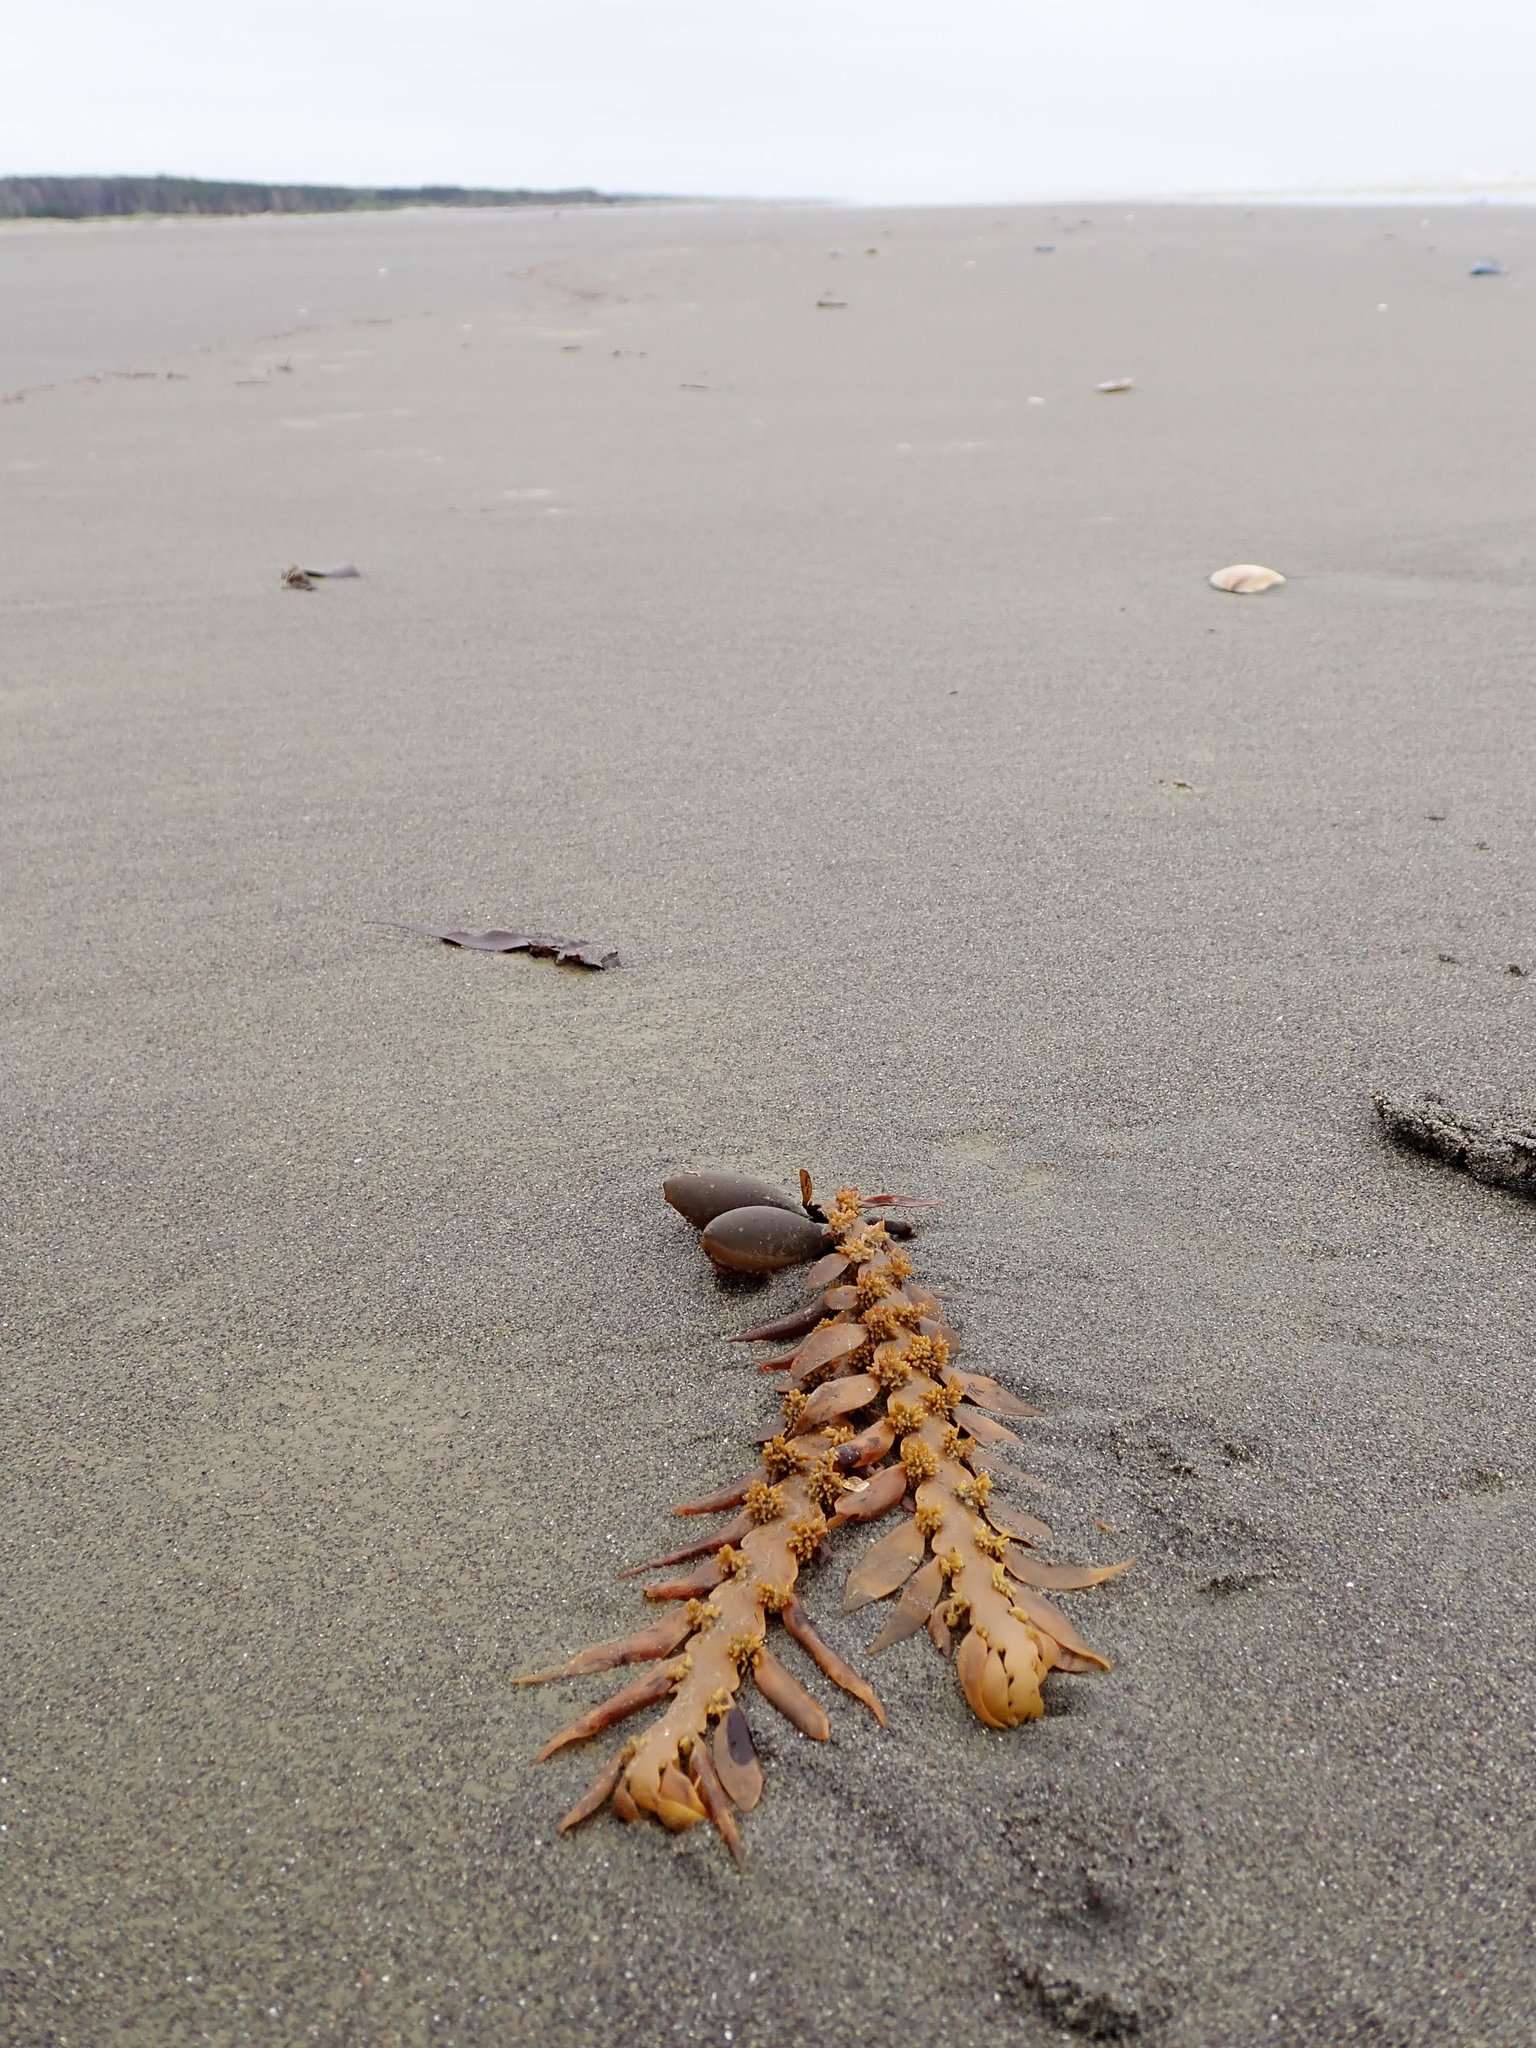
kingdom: Chromista
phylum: Ochrophyta
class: Phaeophyceae
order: Fucales
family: Sargassaceae
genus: Carpophyllum
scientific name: Carpophyllum maschalocarpum
